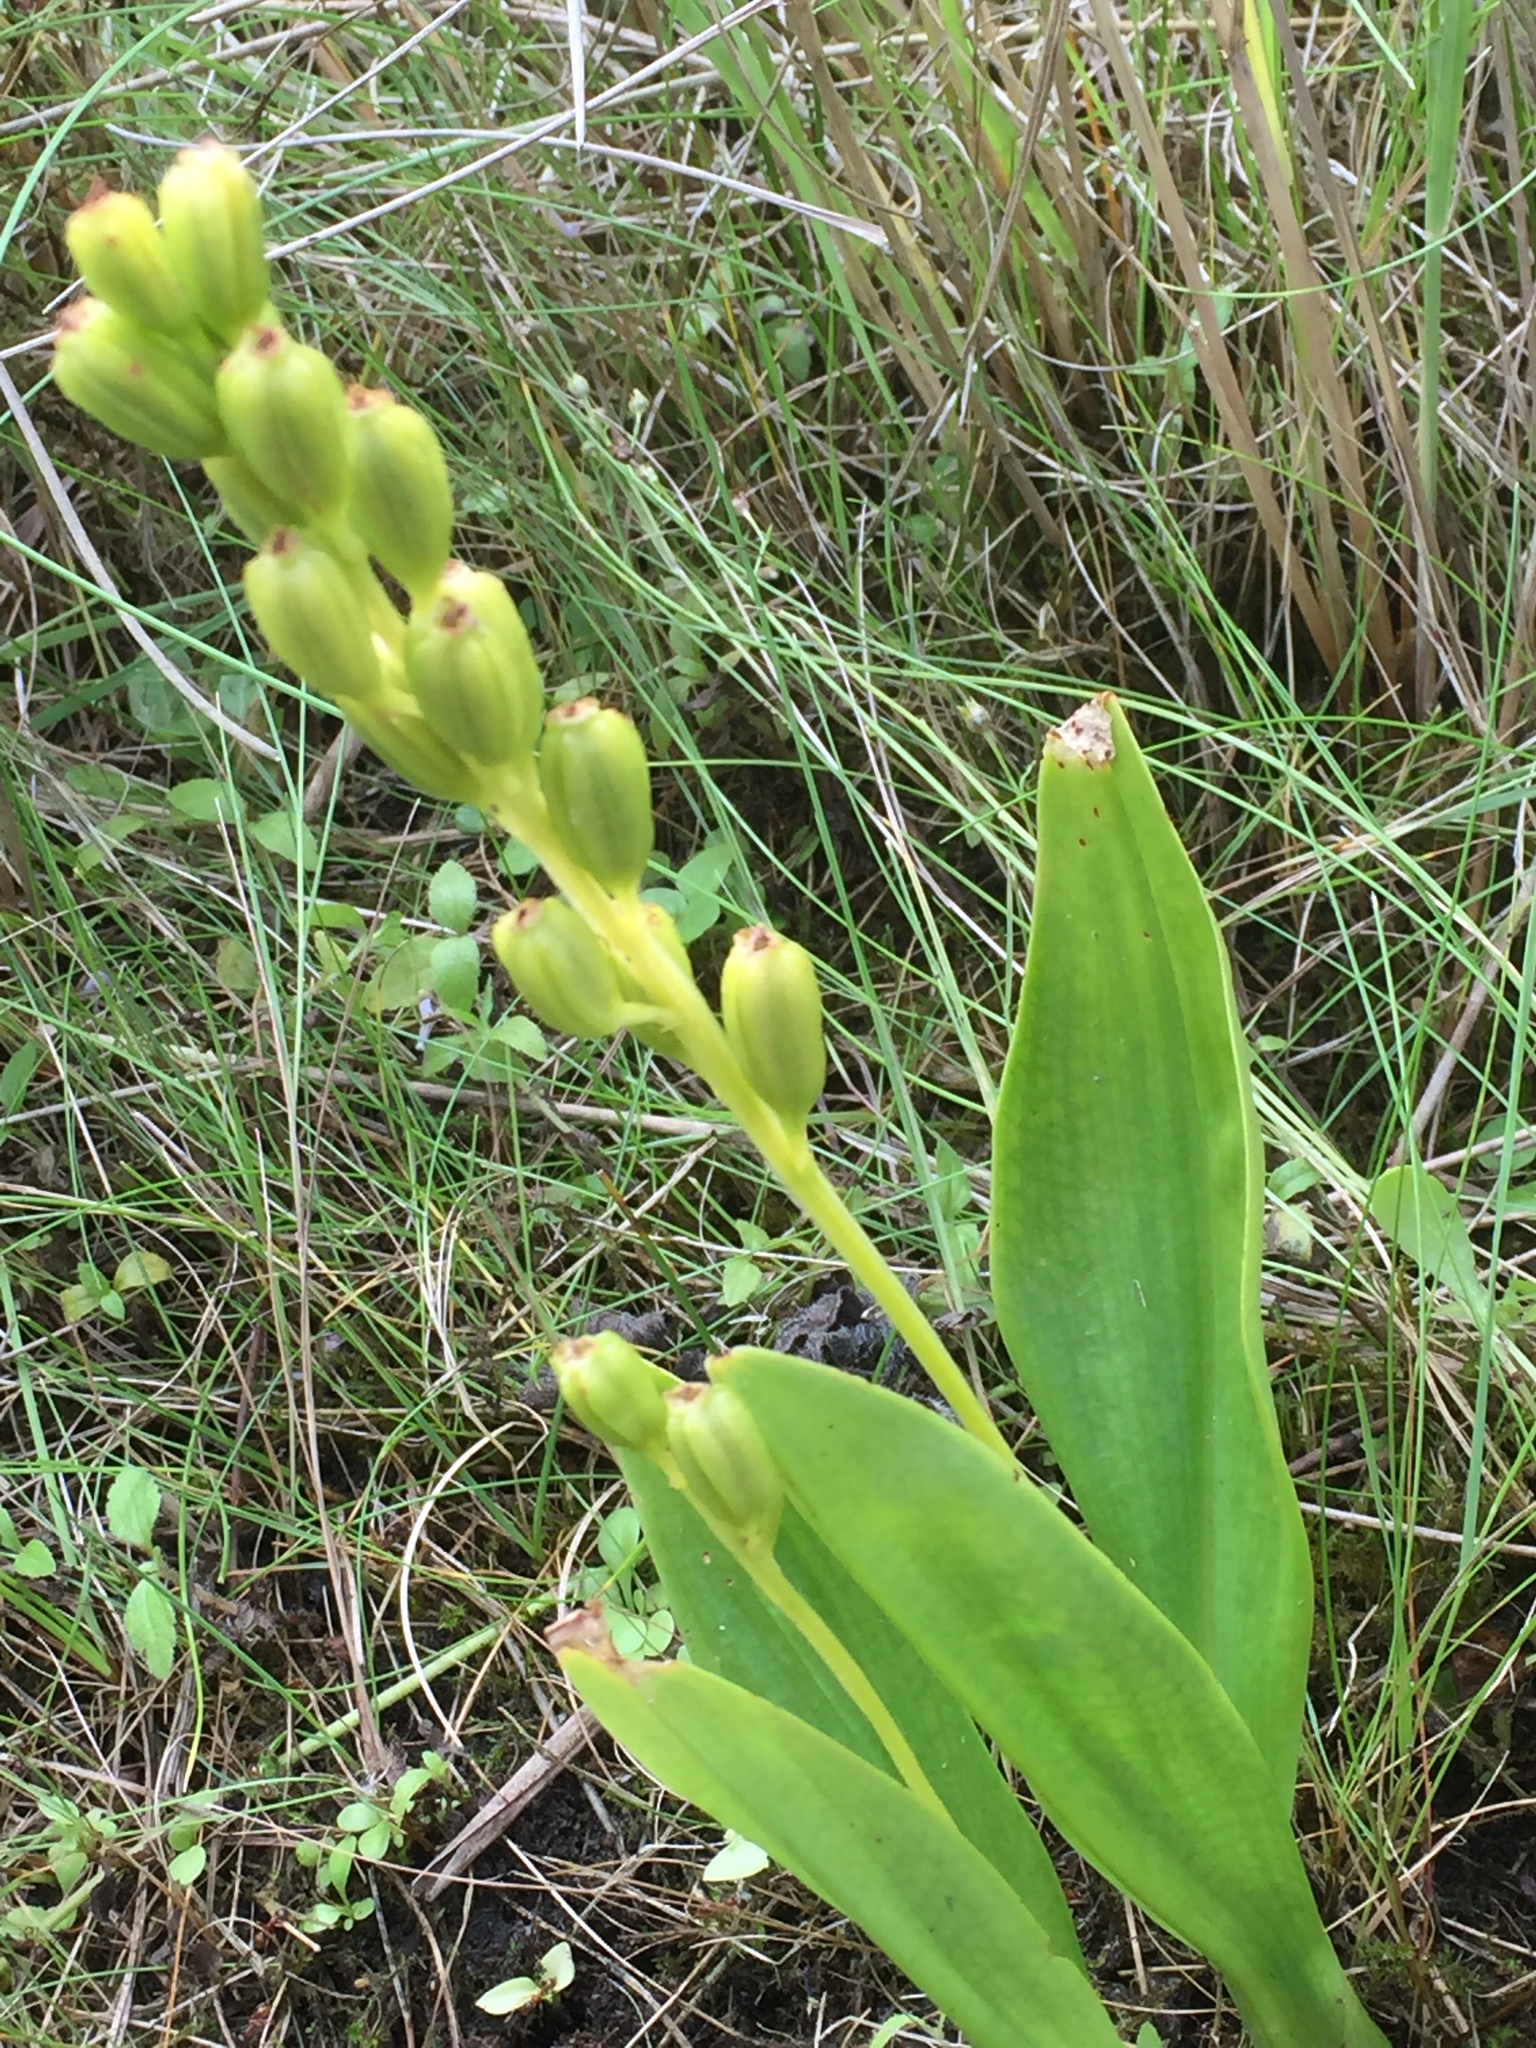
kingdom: Animalia
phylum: Arthropoda
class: Insecta
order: Coleoptera
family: Curculionidae
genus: Liparis
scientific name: Liparis loeselii
